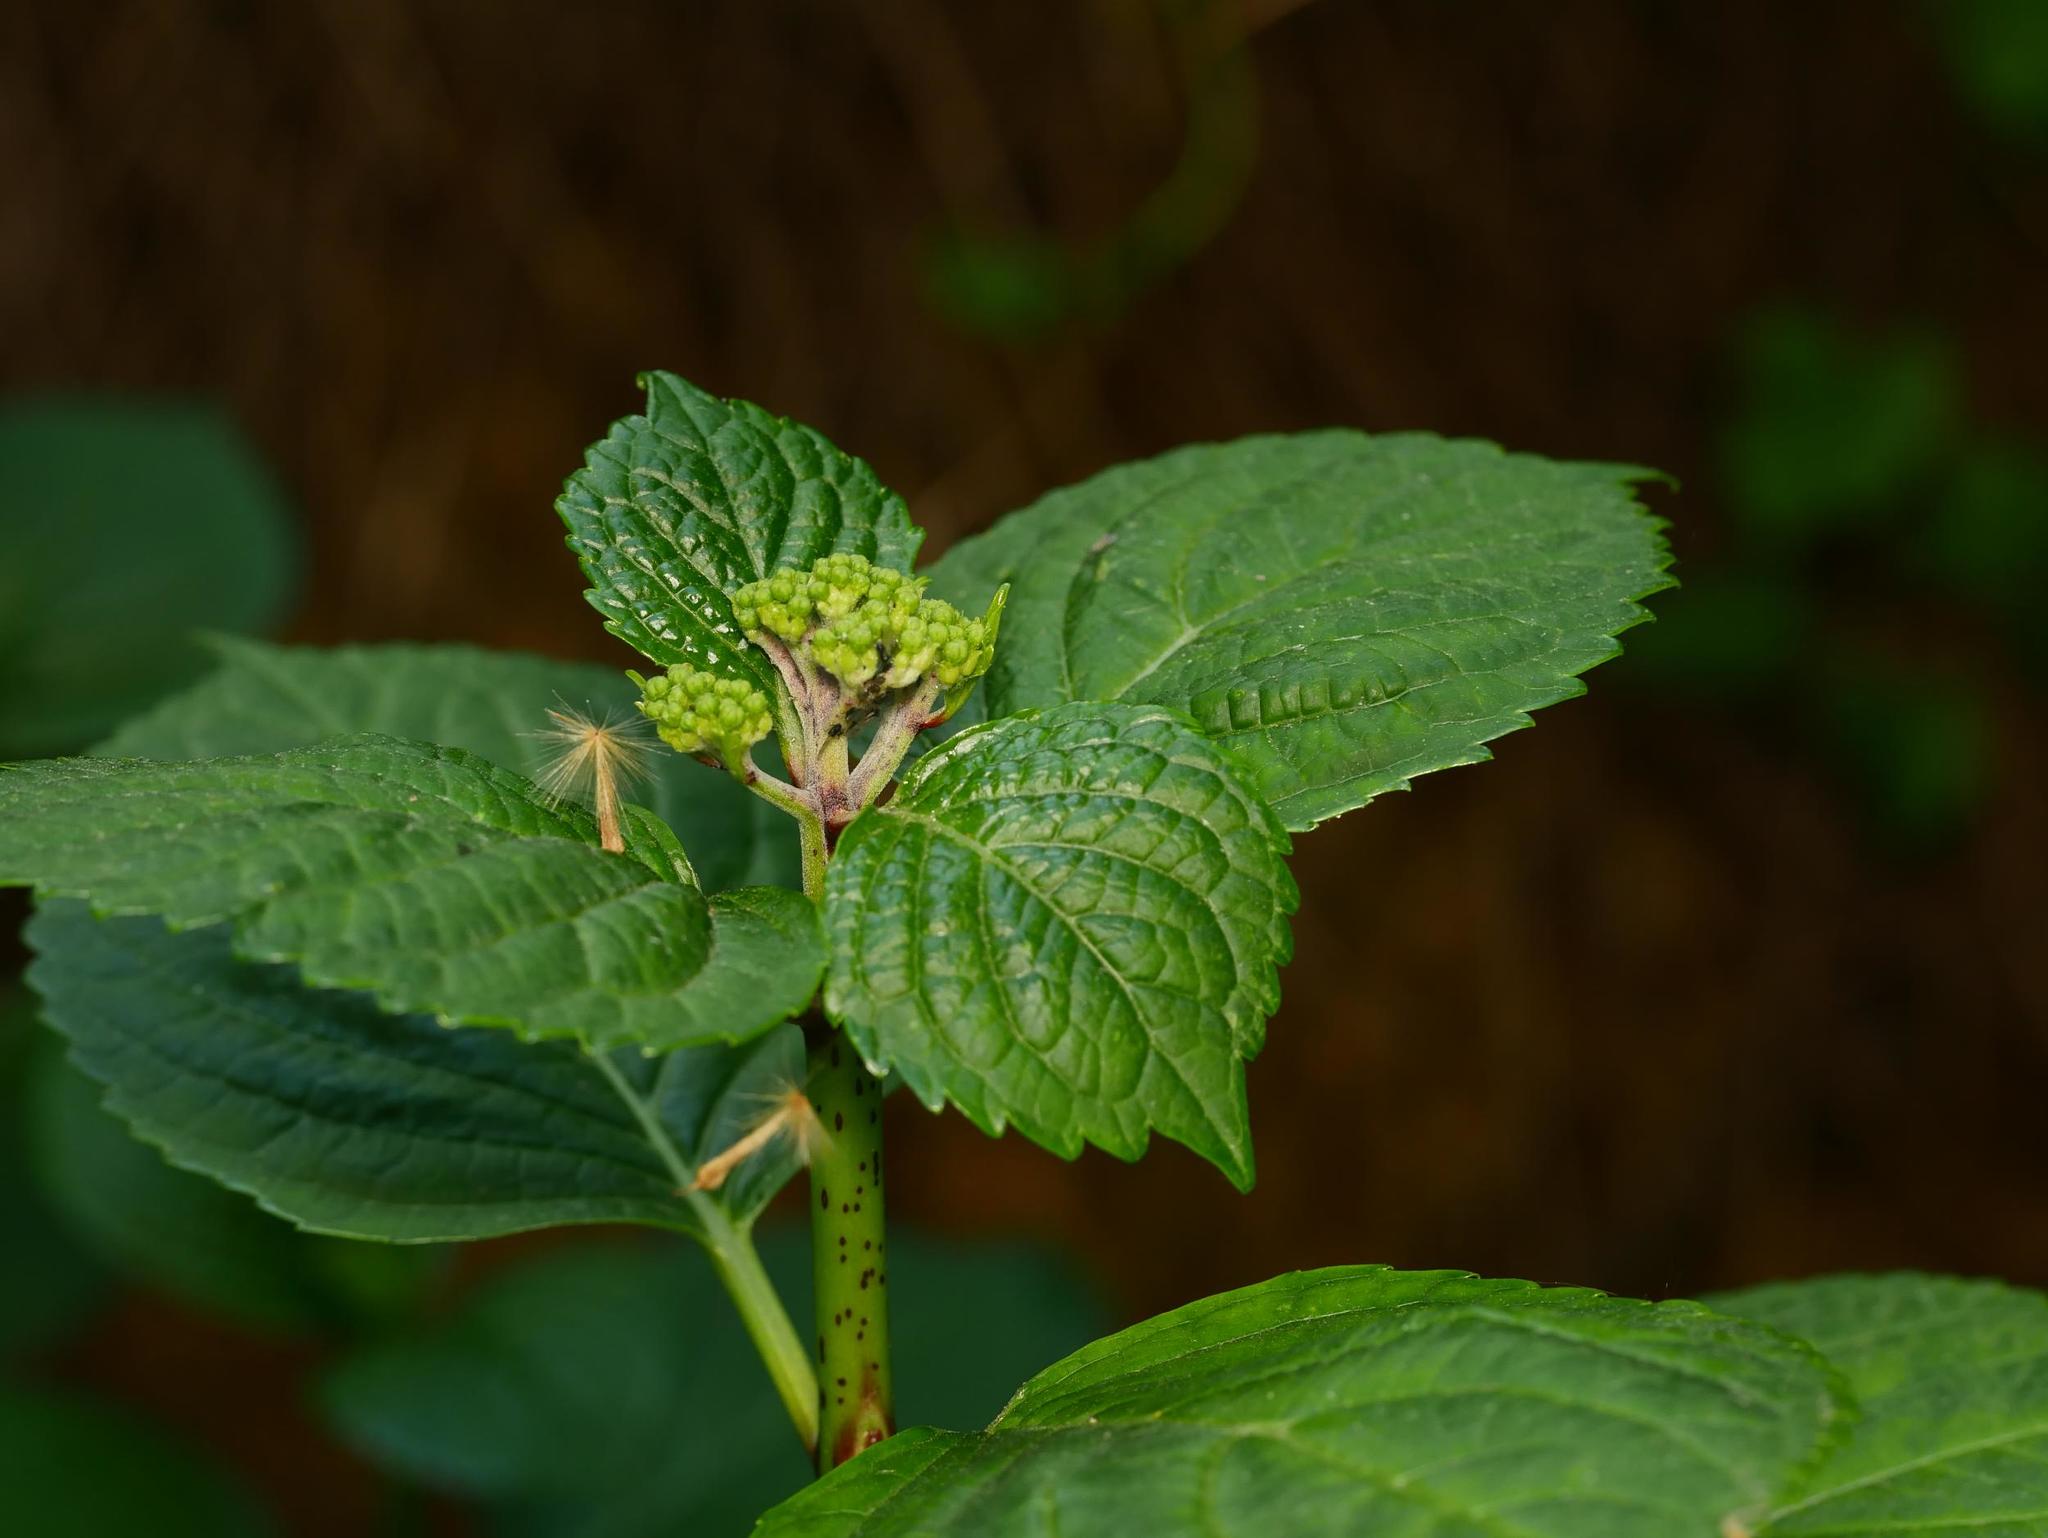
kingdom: Animalia
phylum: Arthropoda
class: Insecta
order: Hemiptera
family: Aphididae
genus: Aphis
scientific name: Aphis aurantii
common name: Black citrus aphid
